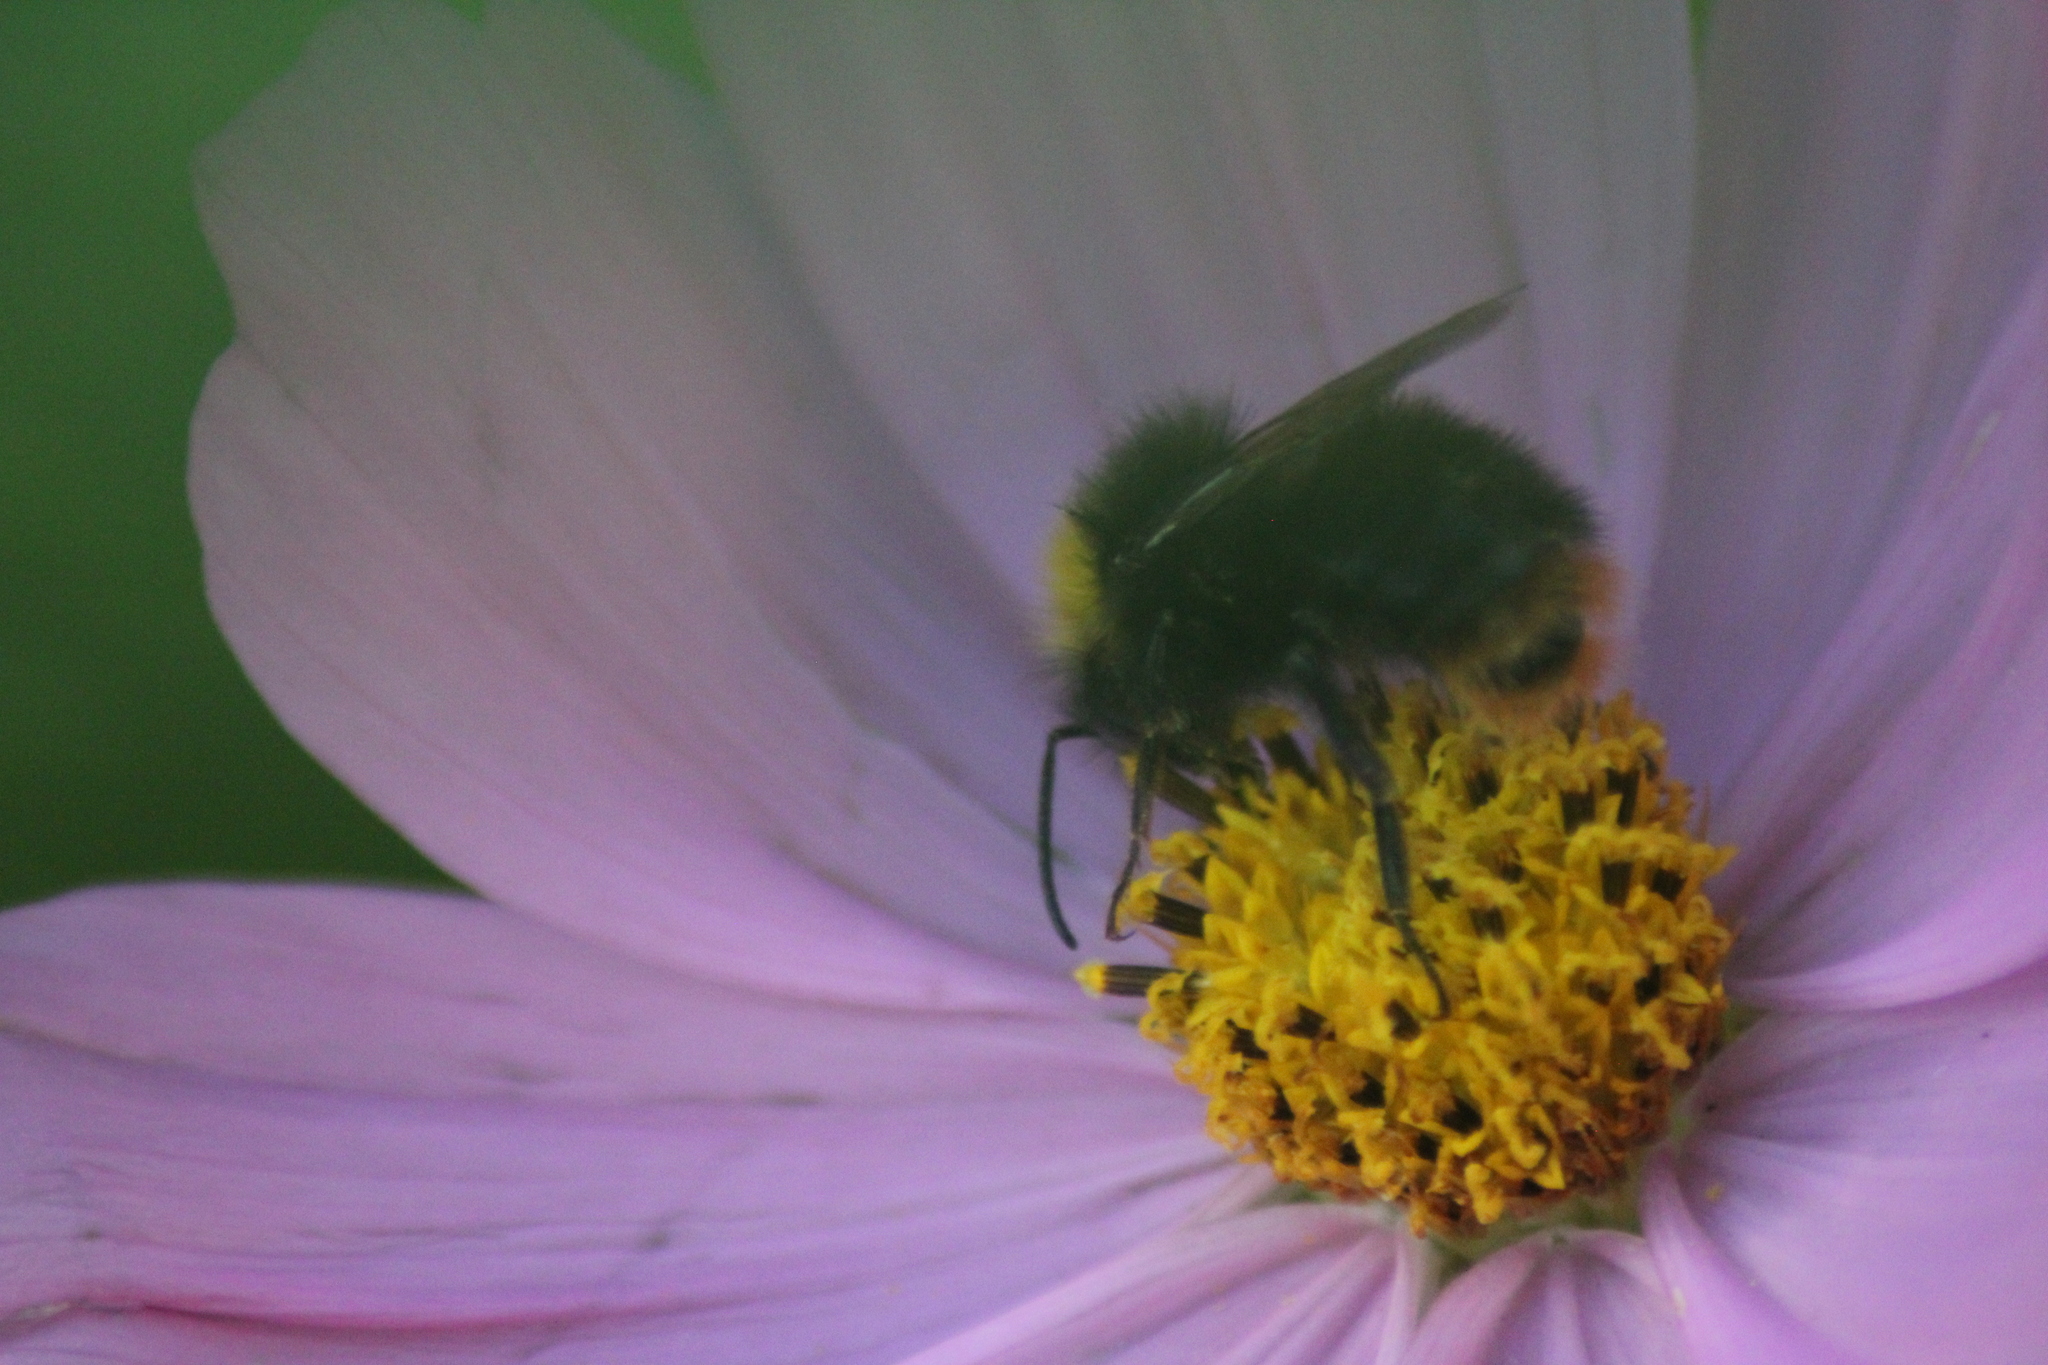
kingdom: Animalia
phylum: Arthropoda
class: Insecta
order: Hymenoptera
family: Apidae
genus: Bombus
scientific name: Bombus pratorum
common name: Early humble-bee
